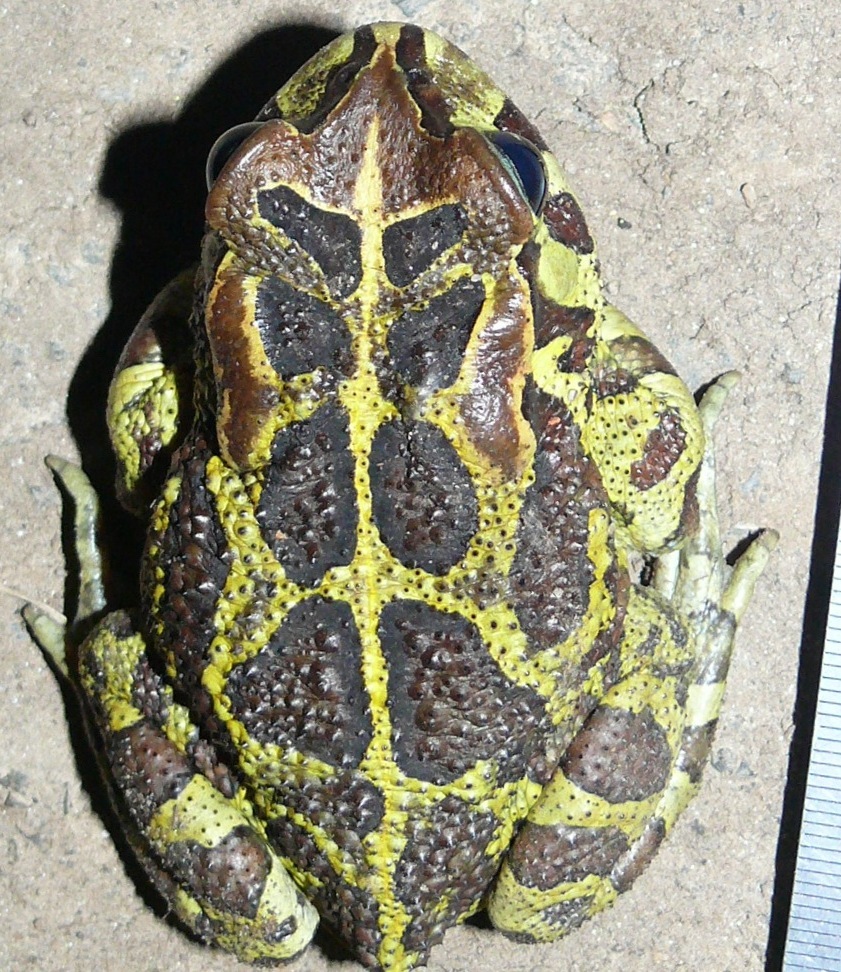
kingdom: Animalia
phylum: Chordata
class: Amphibia
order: Anura
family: Bufonidae
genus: Sclerophrys
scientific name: Sclerophrys pantherina
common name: Panther toad
